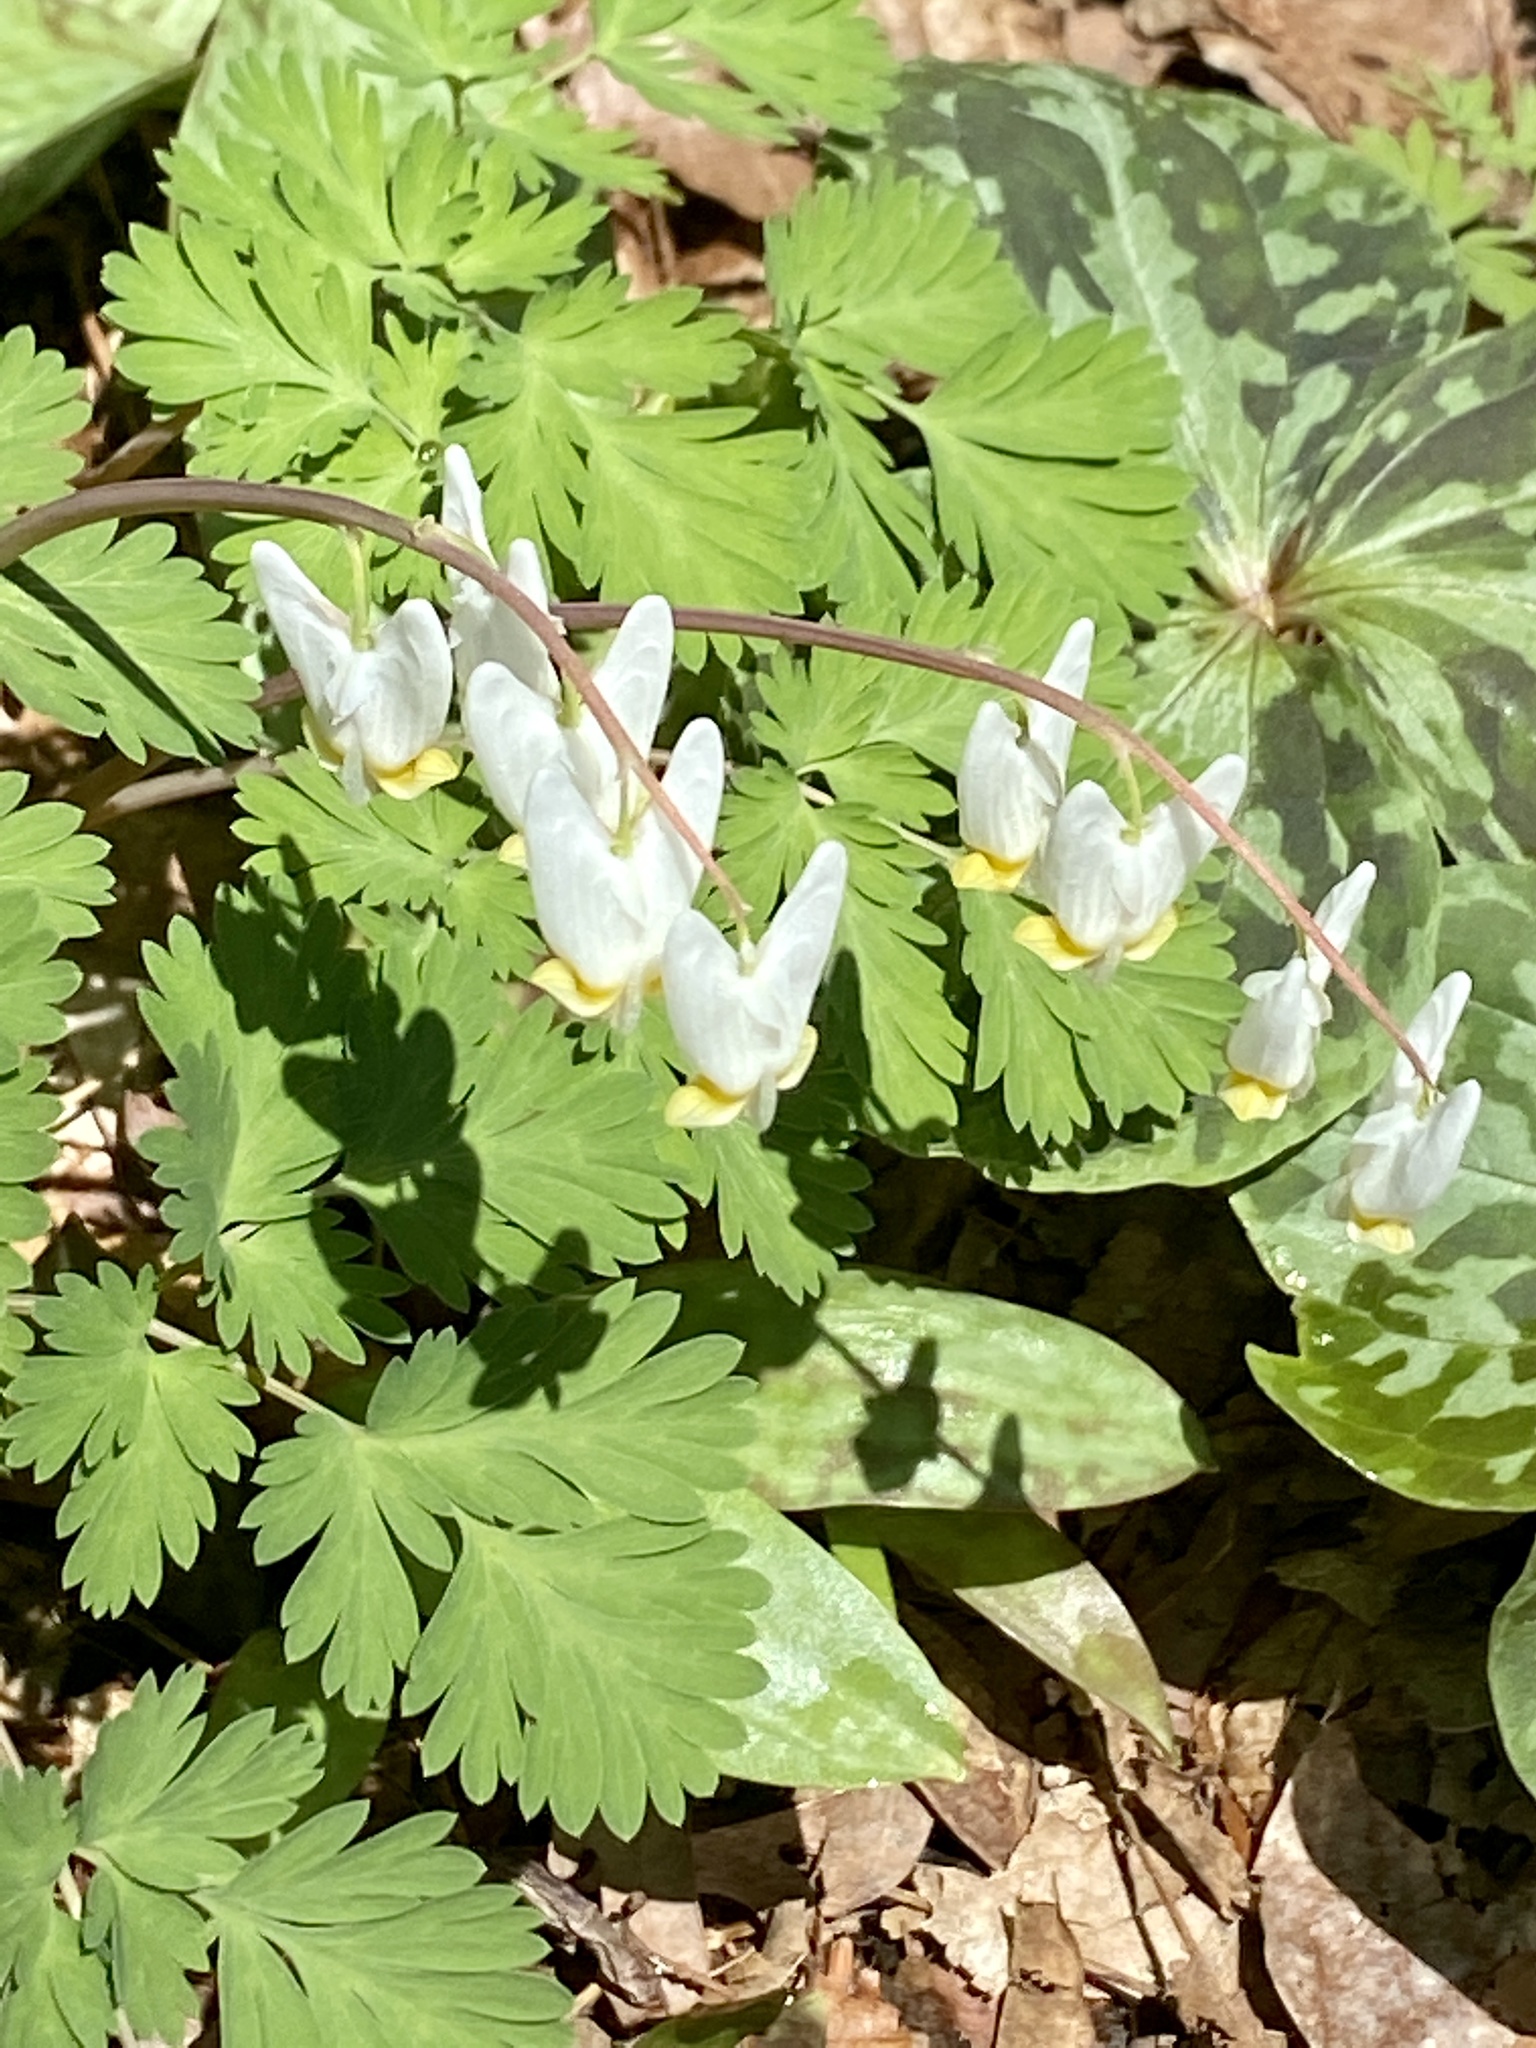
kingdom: Plantae
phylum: Tracheophyta
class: Magnoliopsida
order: Ranunculales
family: Papaveraceae
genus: Dicentra
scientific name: Dicentra cucullaria
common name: Dutchman's breeches
